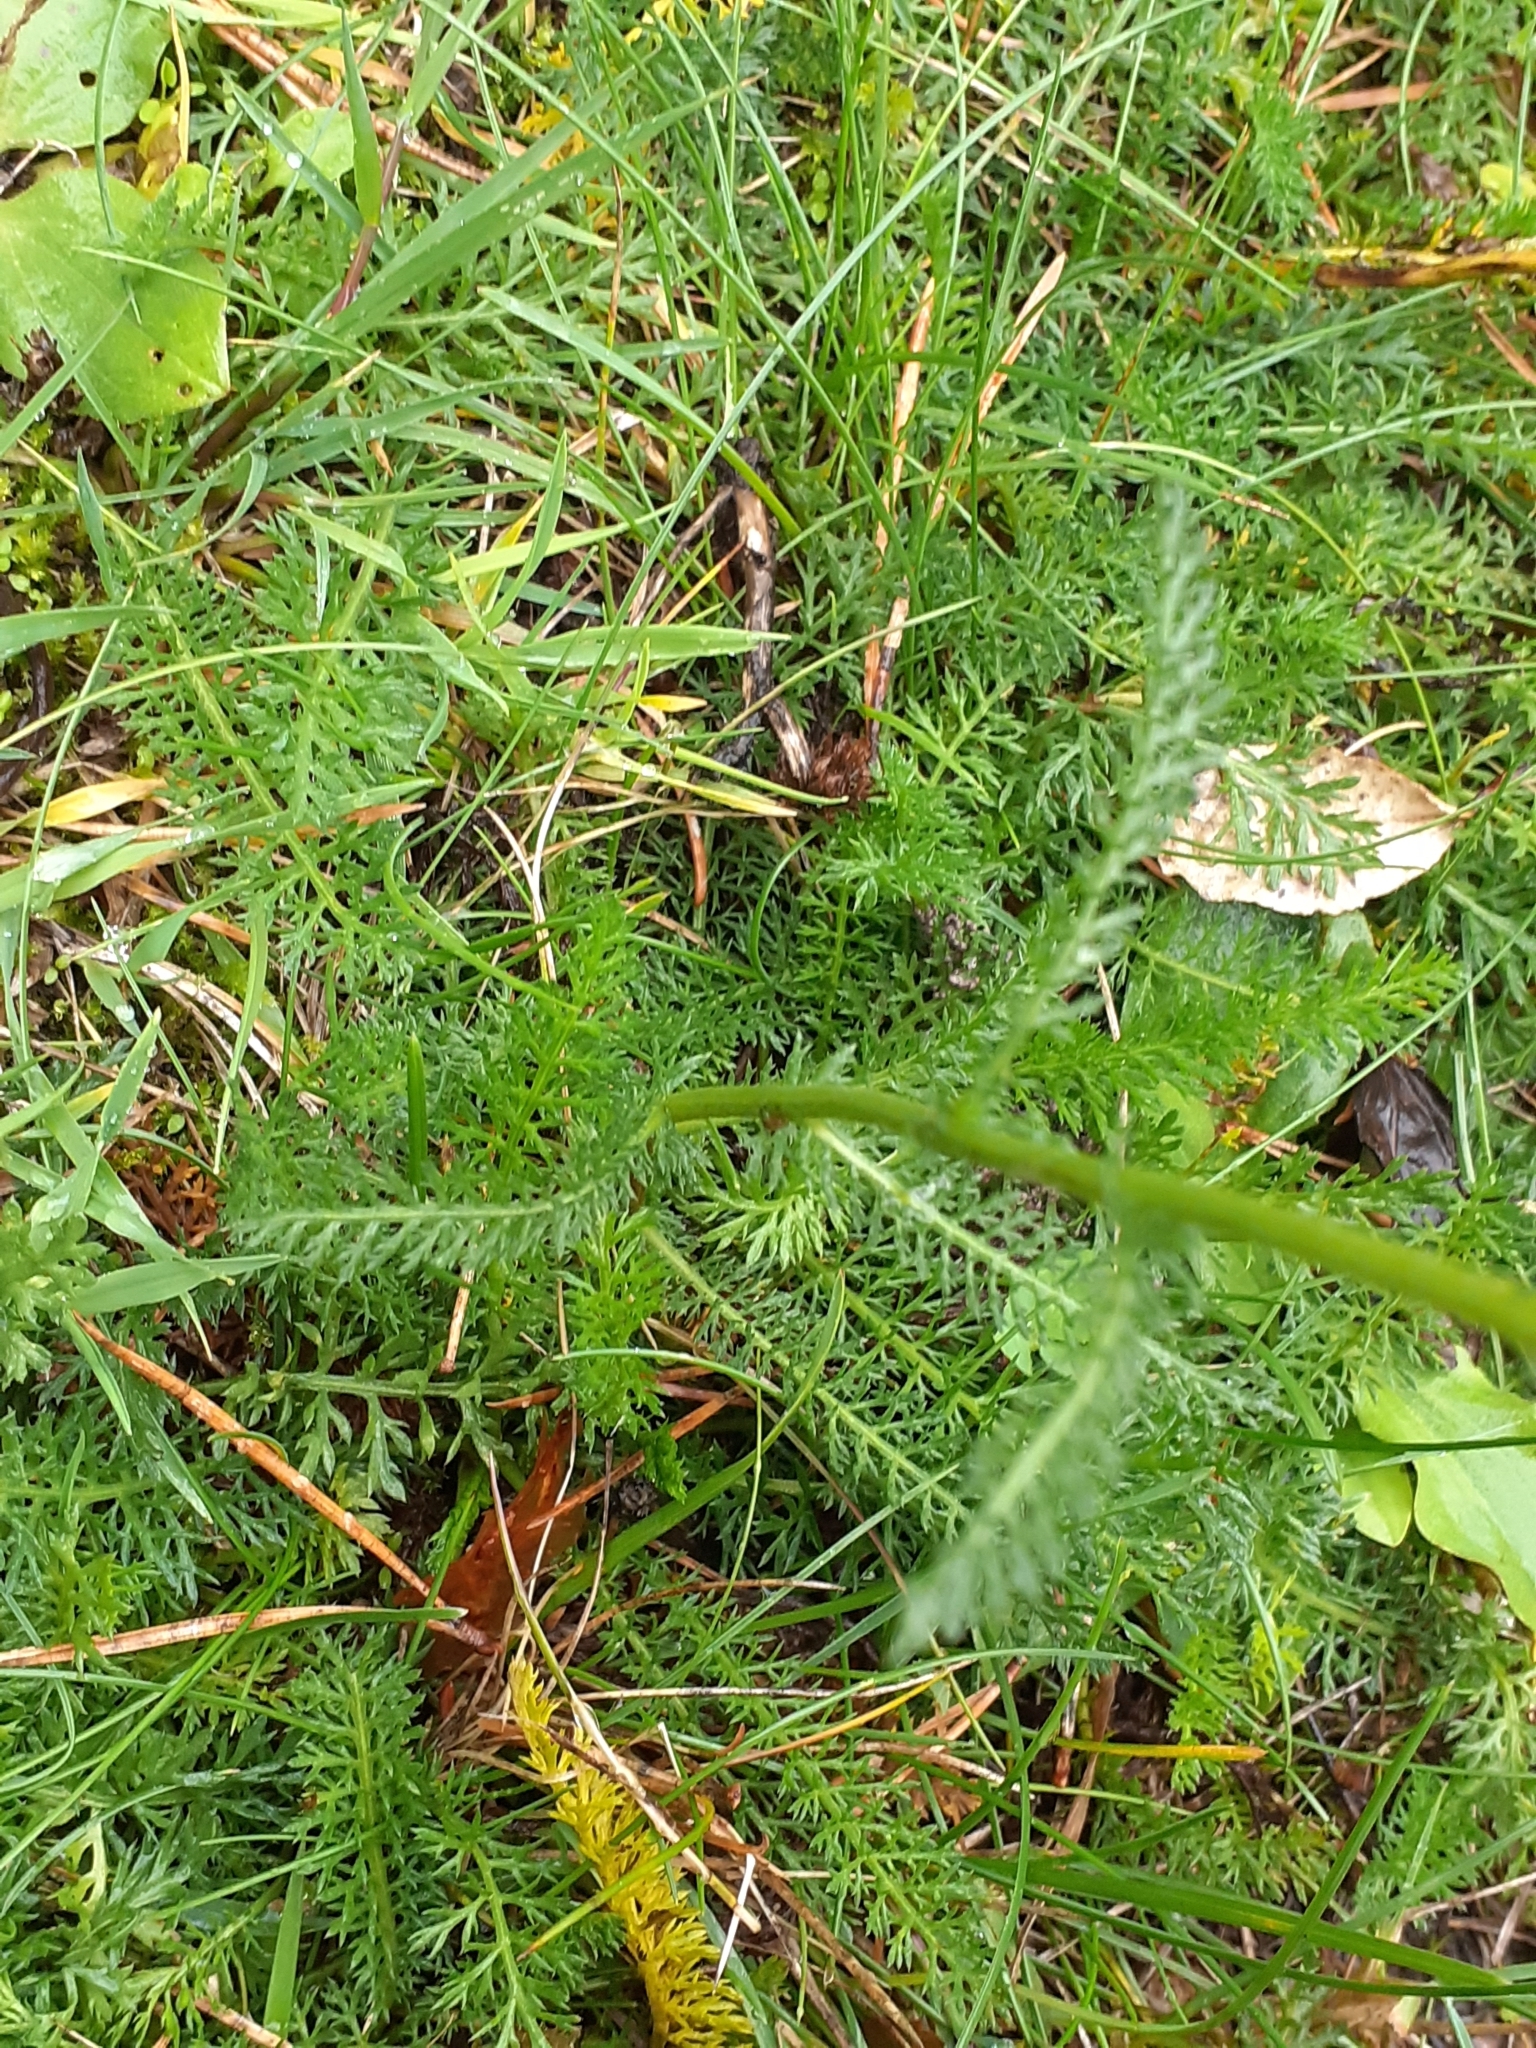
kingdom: Plantae
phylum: Tracheophyta
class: Magnoliopsida
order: Asterales
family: Asteraceae
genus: Achillea
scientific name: Achillea millefolium
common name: Yarrow
